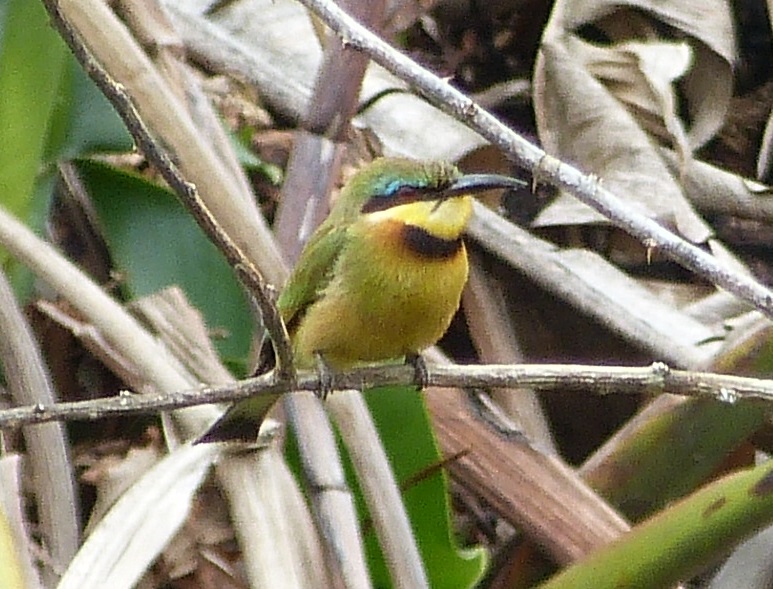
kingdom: Animalia
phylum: Chordata
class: Aves
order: Coraciiformes
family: Meropidae
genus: Merops
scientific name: Merops pusillus
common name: Little bee-eater
